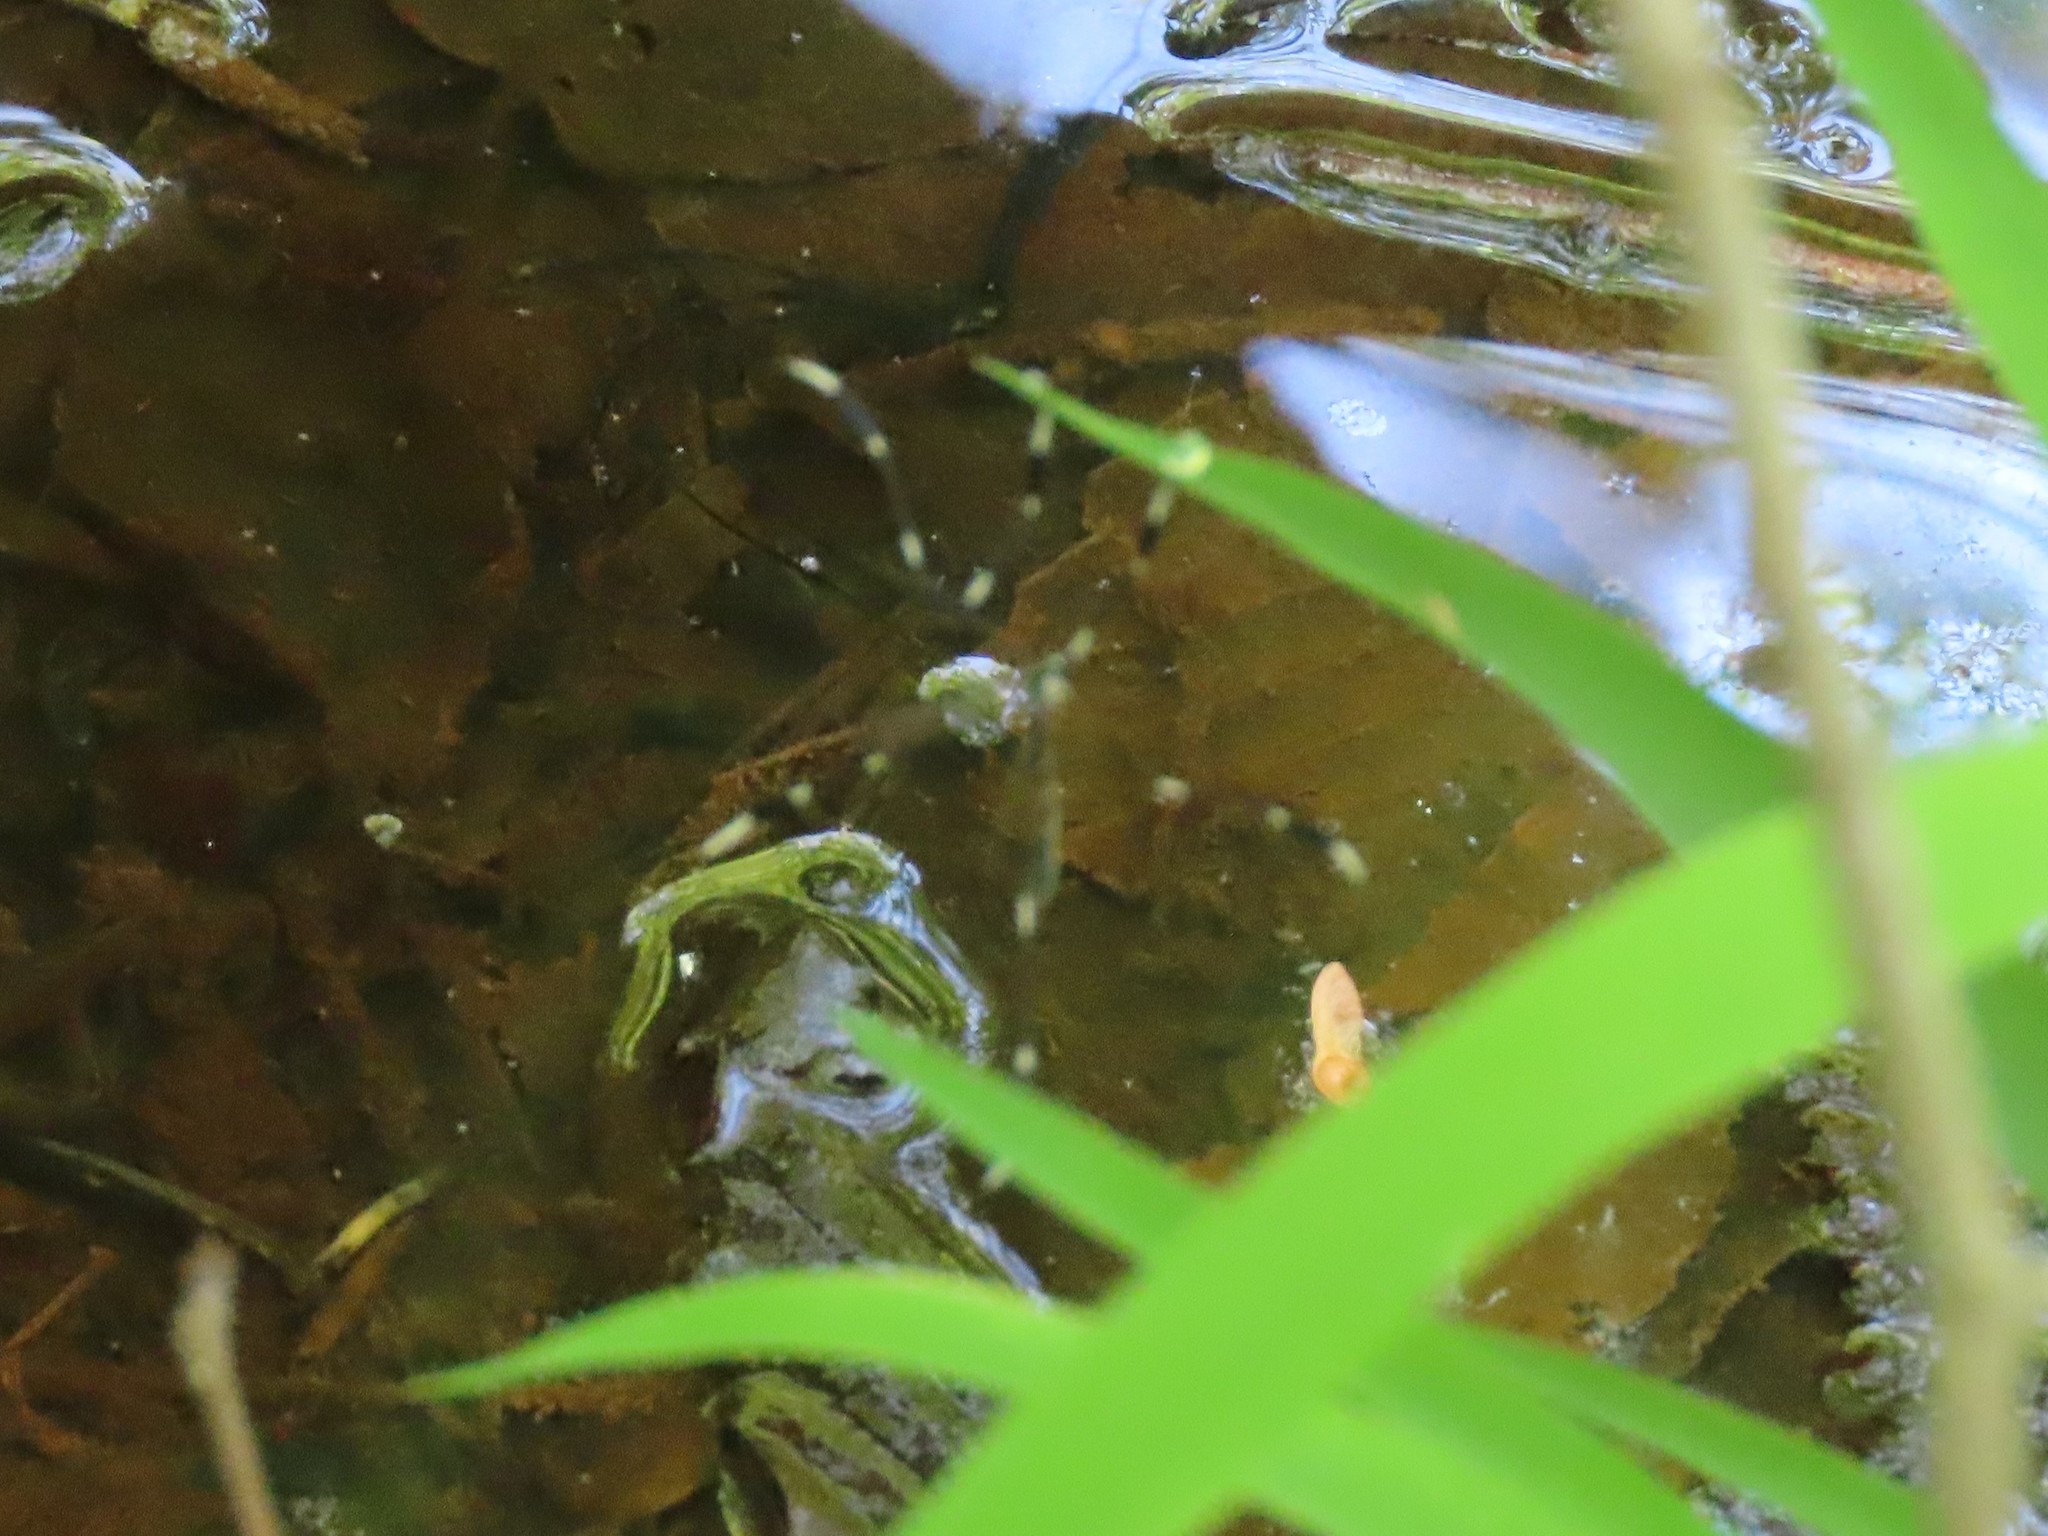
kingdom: Animalia
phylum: Arthropoda
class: Insecta
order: Diptera
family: Ptychopteridae
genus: Bittacomorpha
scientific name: Bittacomorpha clavipes
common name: Eastern phantom crane fly
